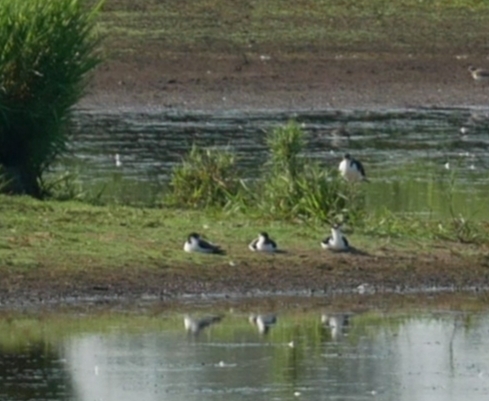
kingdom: Animalia
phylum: Chordata
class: Aves
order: Charadriiformes
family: Recurvirostridae
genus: Himantopus
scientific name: Himantopus mexicanus
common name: Black-necked stilt
